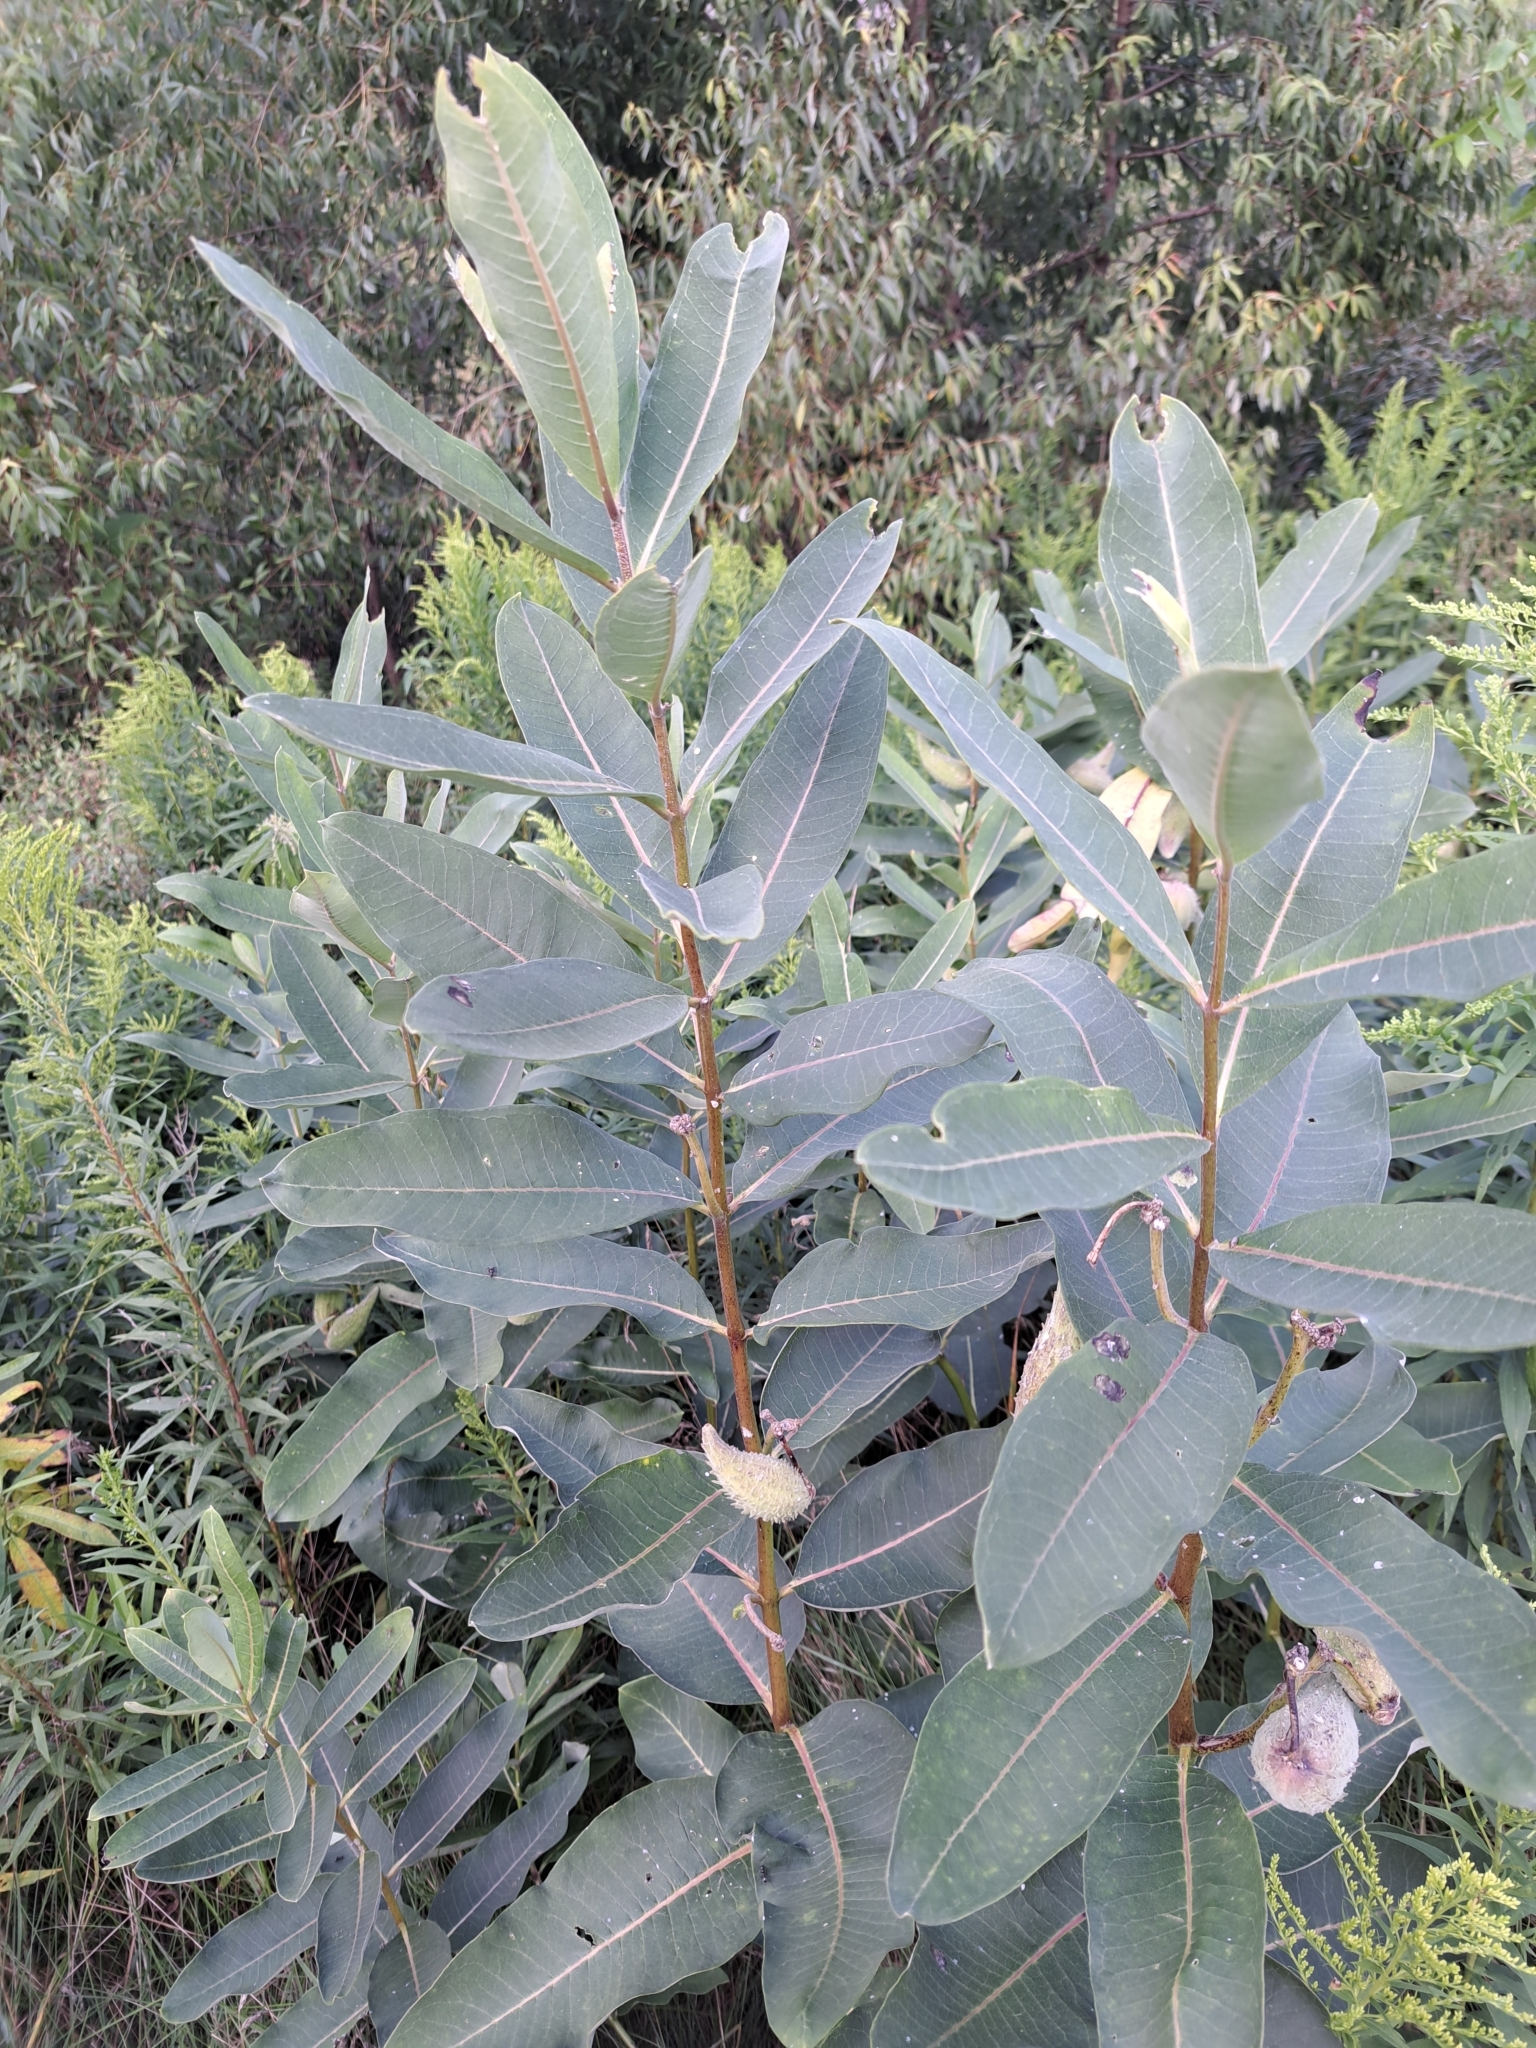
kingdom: Plantae
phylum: Tracheophyta
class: Magnoliopsida
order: Gentianales
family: Apocynaceae
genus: Asclepias
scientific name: Asclepias syriaca
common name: Common milkweed
